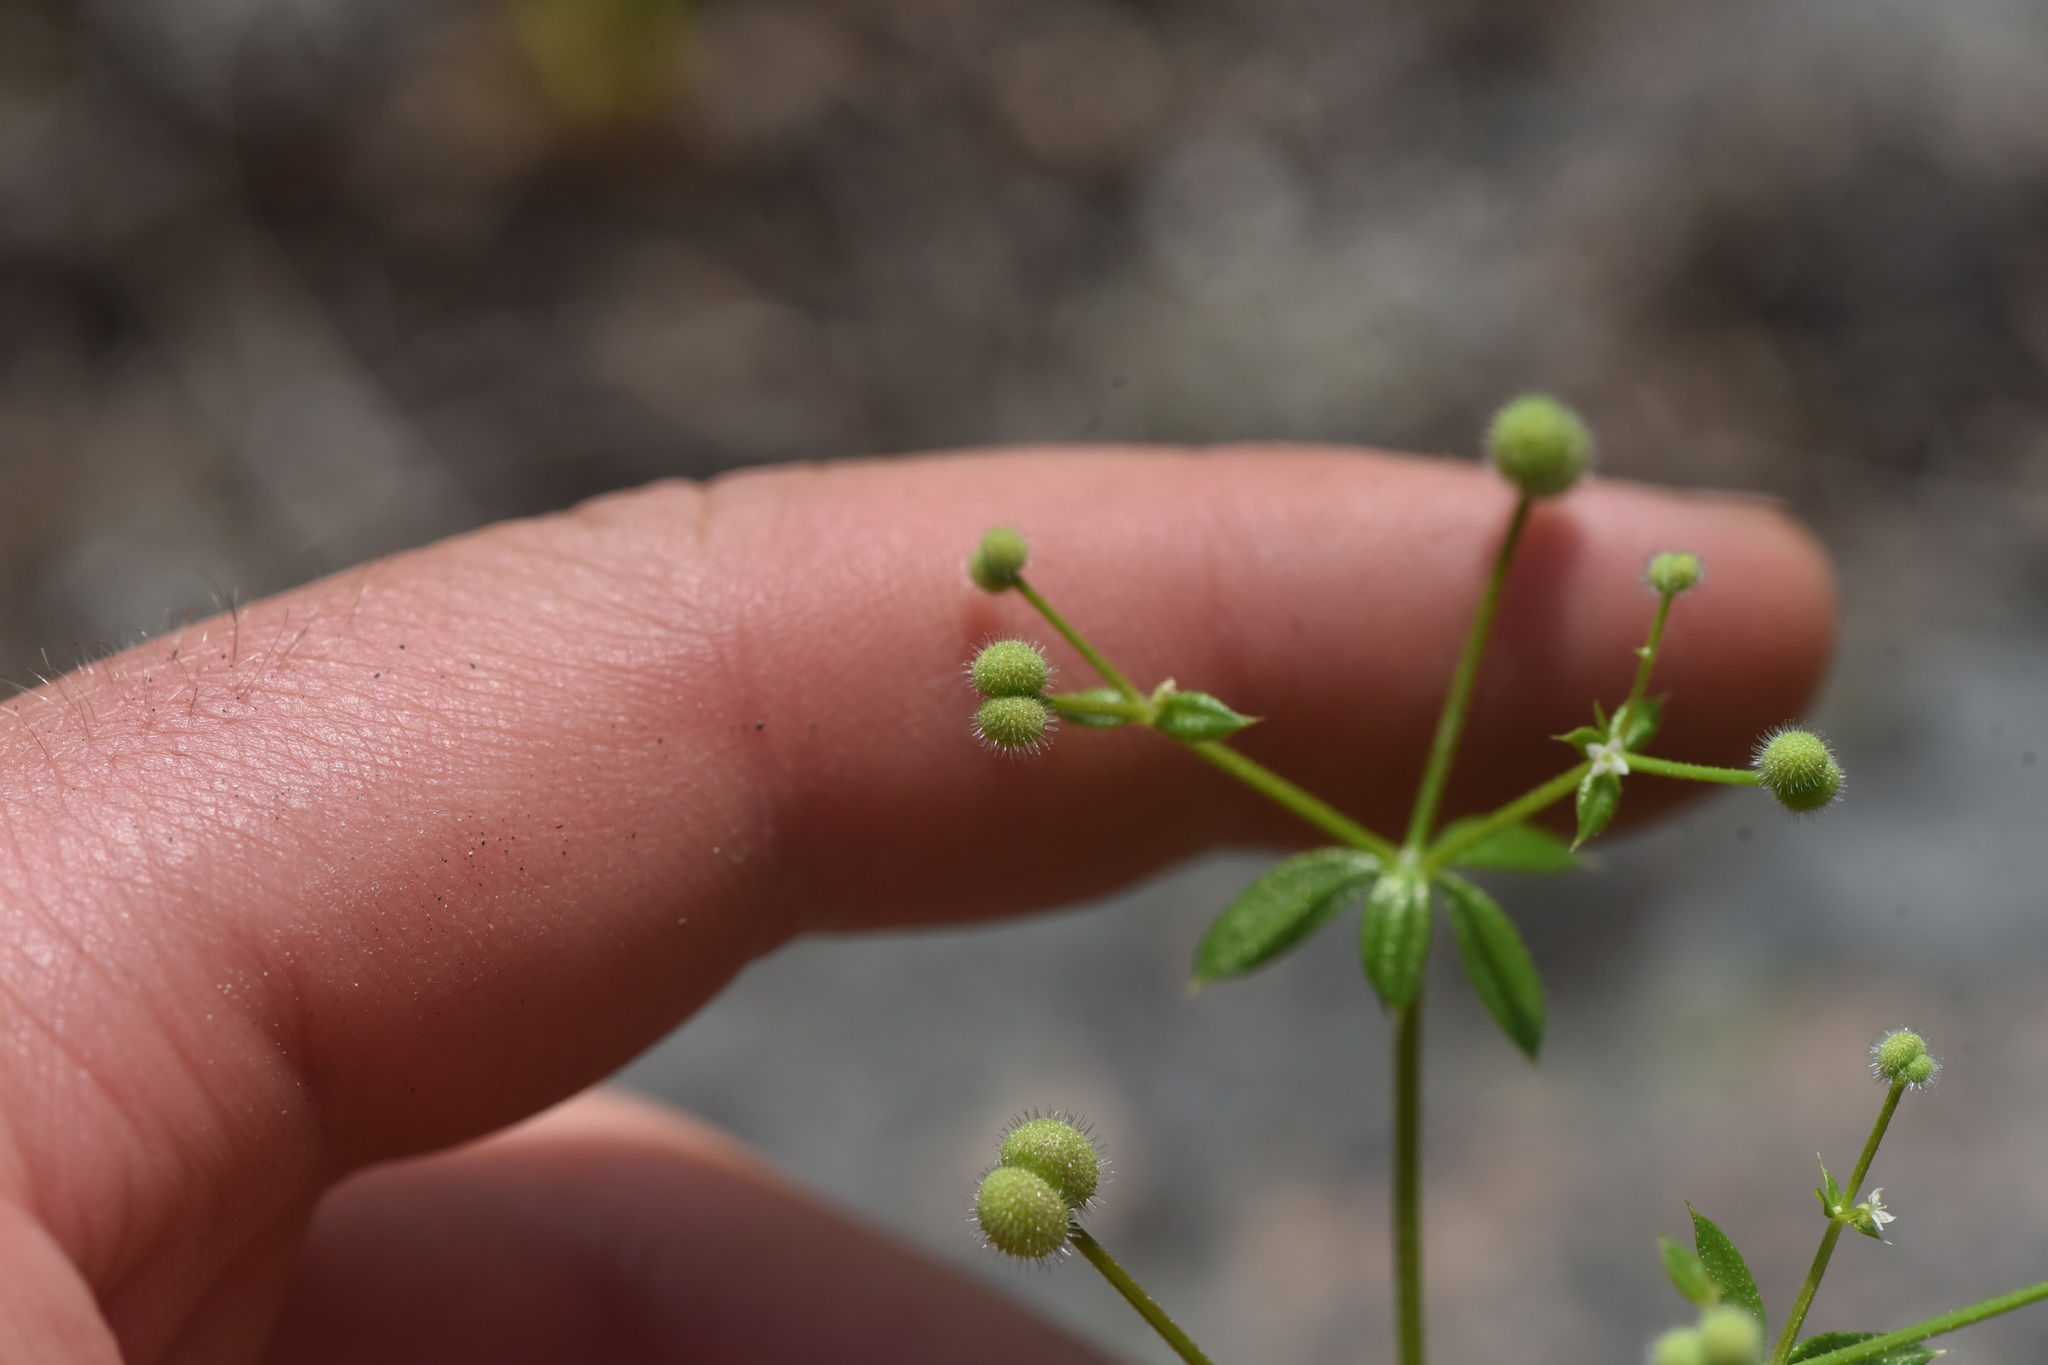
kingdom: Plantae
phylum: Tracheophyta
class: Magnoliopsida
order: Gentianales
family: Rubiaceae
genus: Galium
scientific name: Galium triflorum
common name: Fragrant bedstraw
